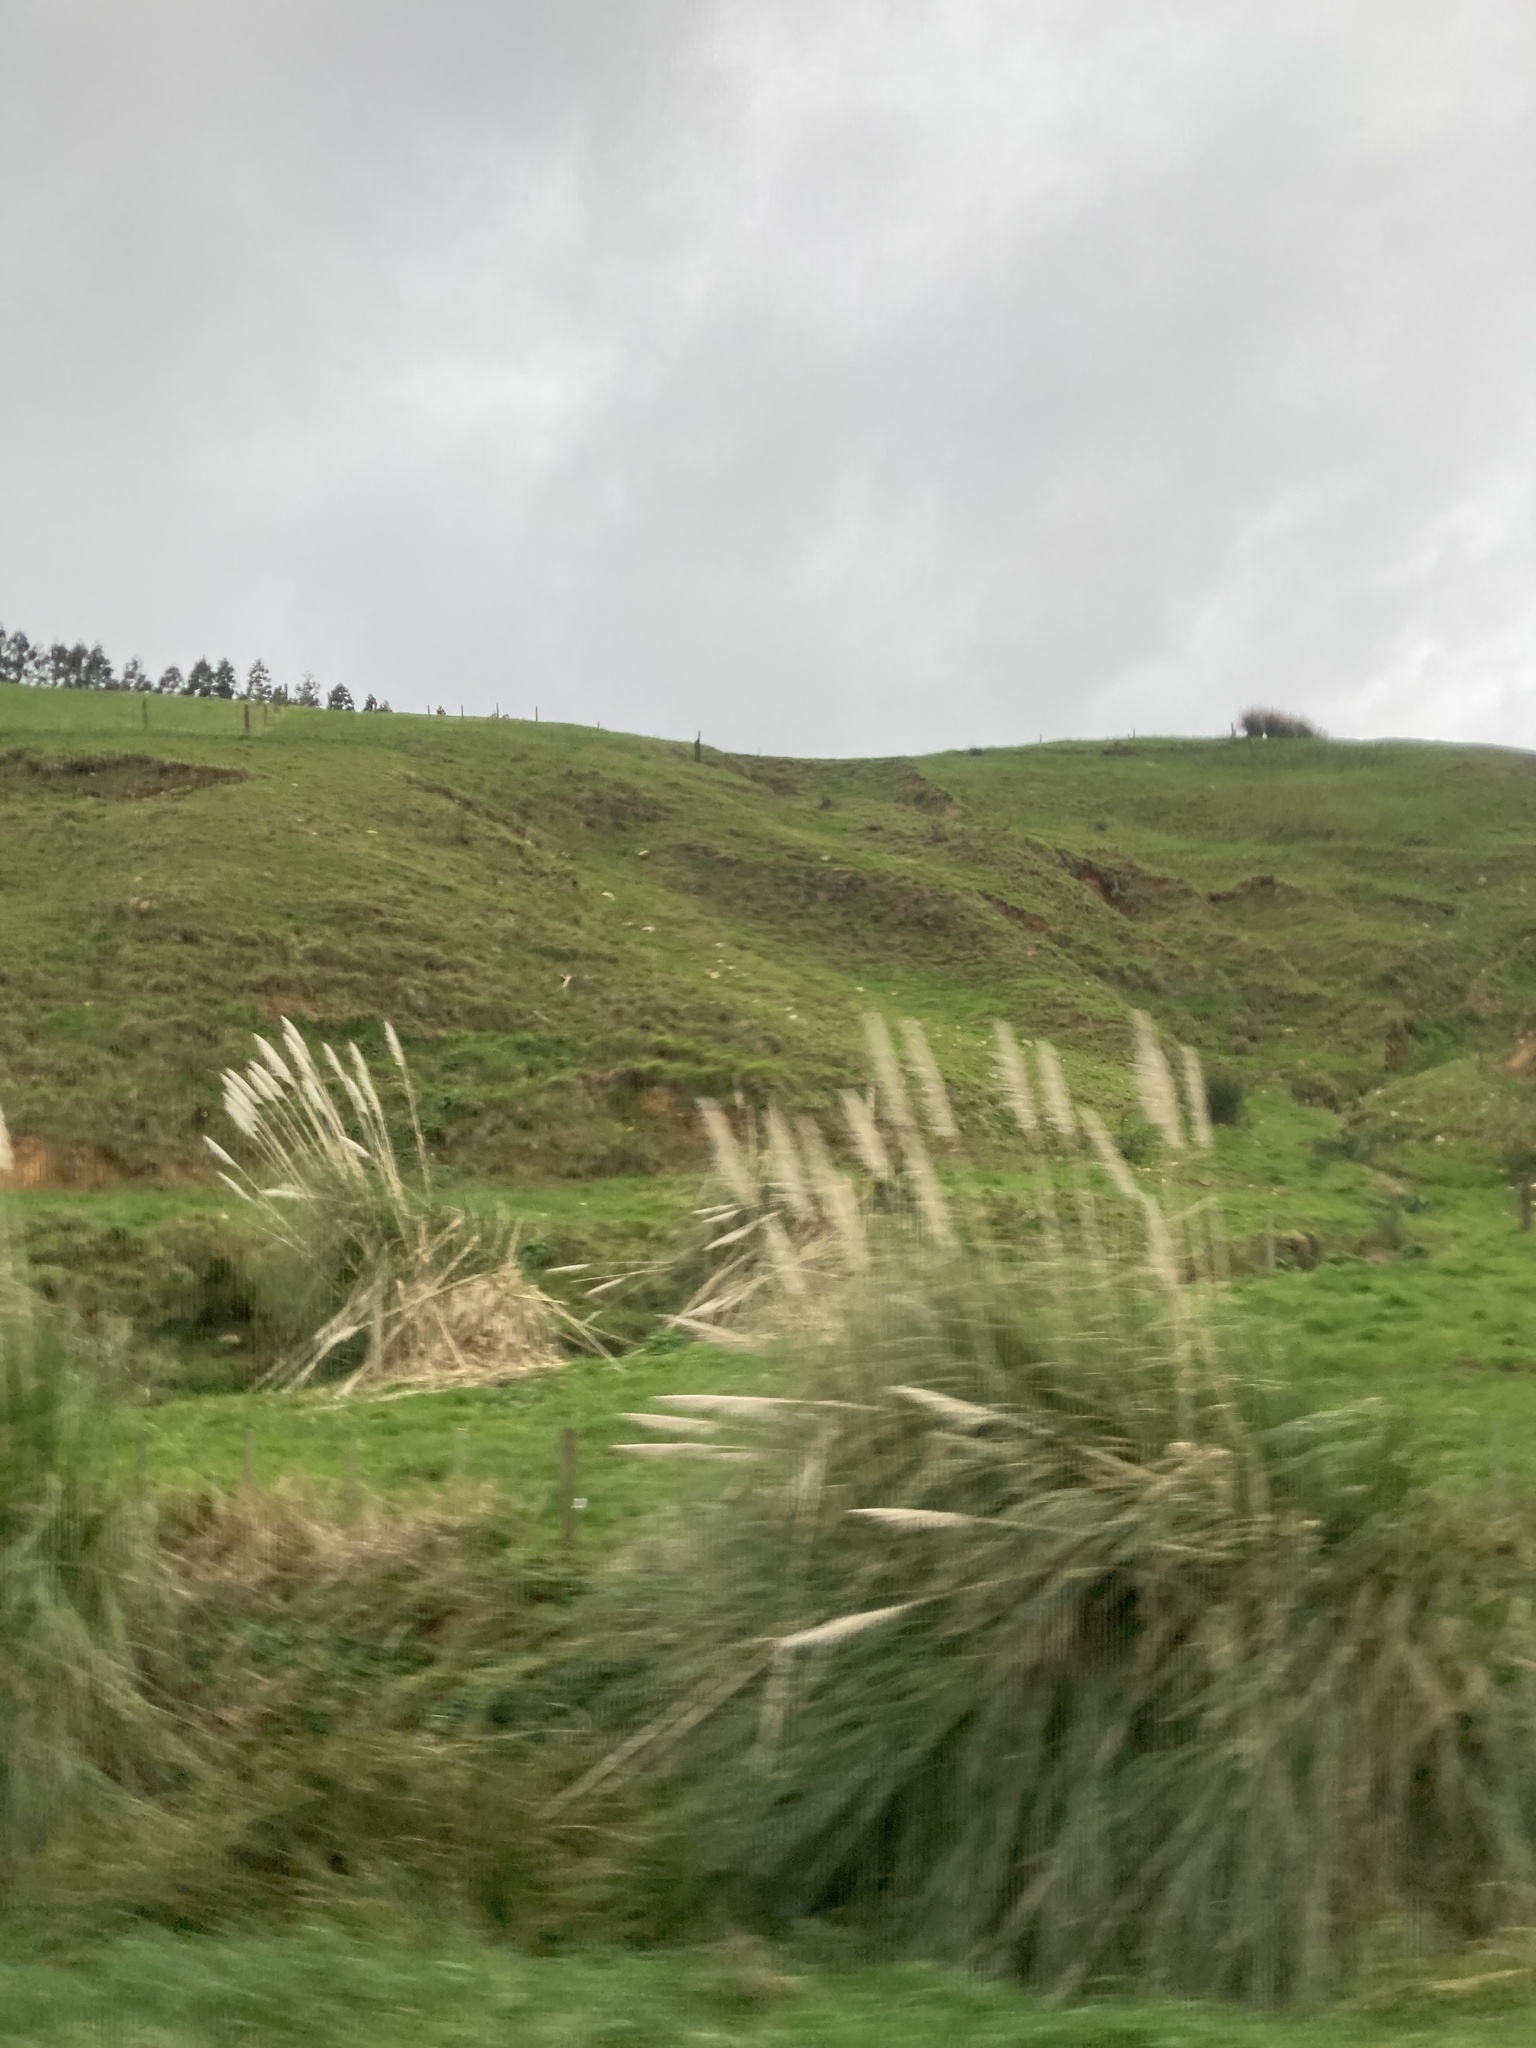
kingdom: Plantae
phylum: Tracheophyta
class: Liliopsida
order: Poales
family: Poaceae
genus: Cortaderia
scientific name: Cortaderia selloana
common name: Uruguayan pampas grass
